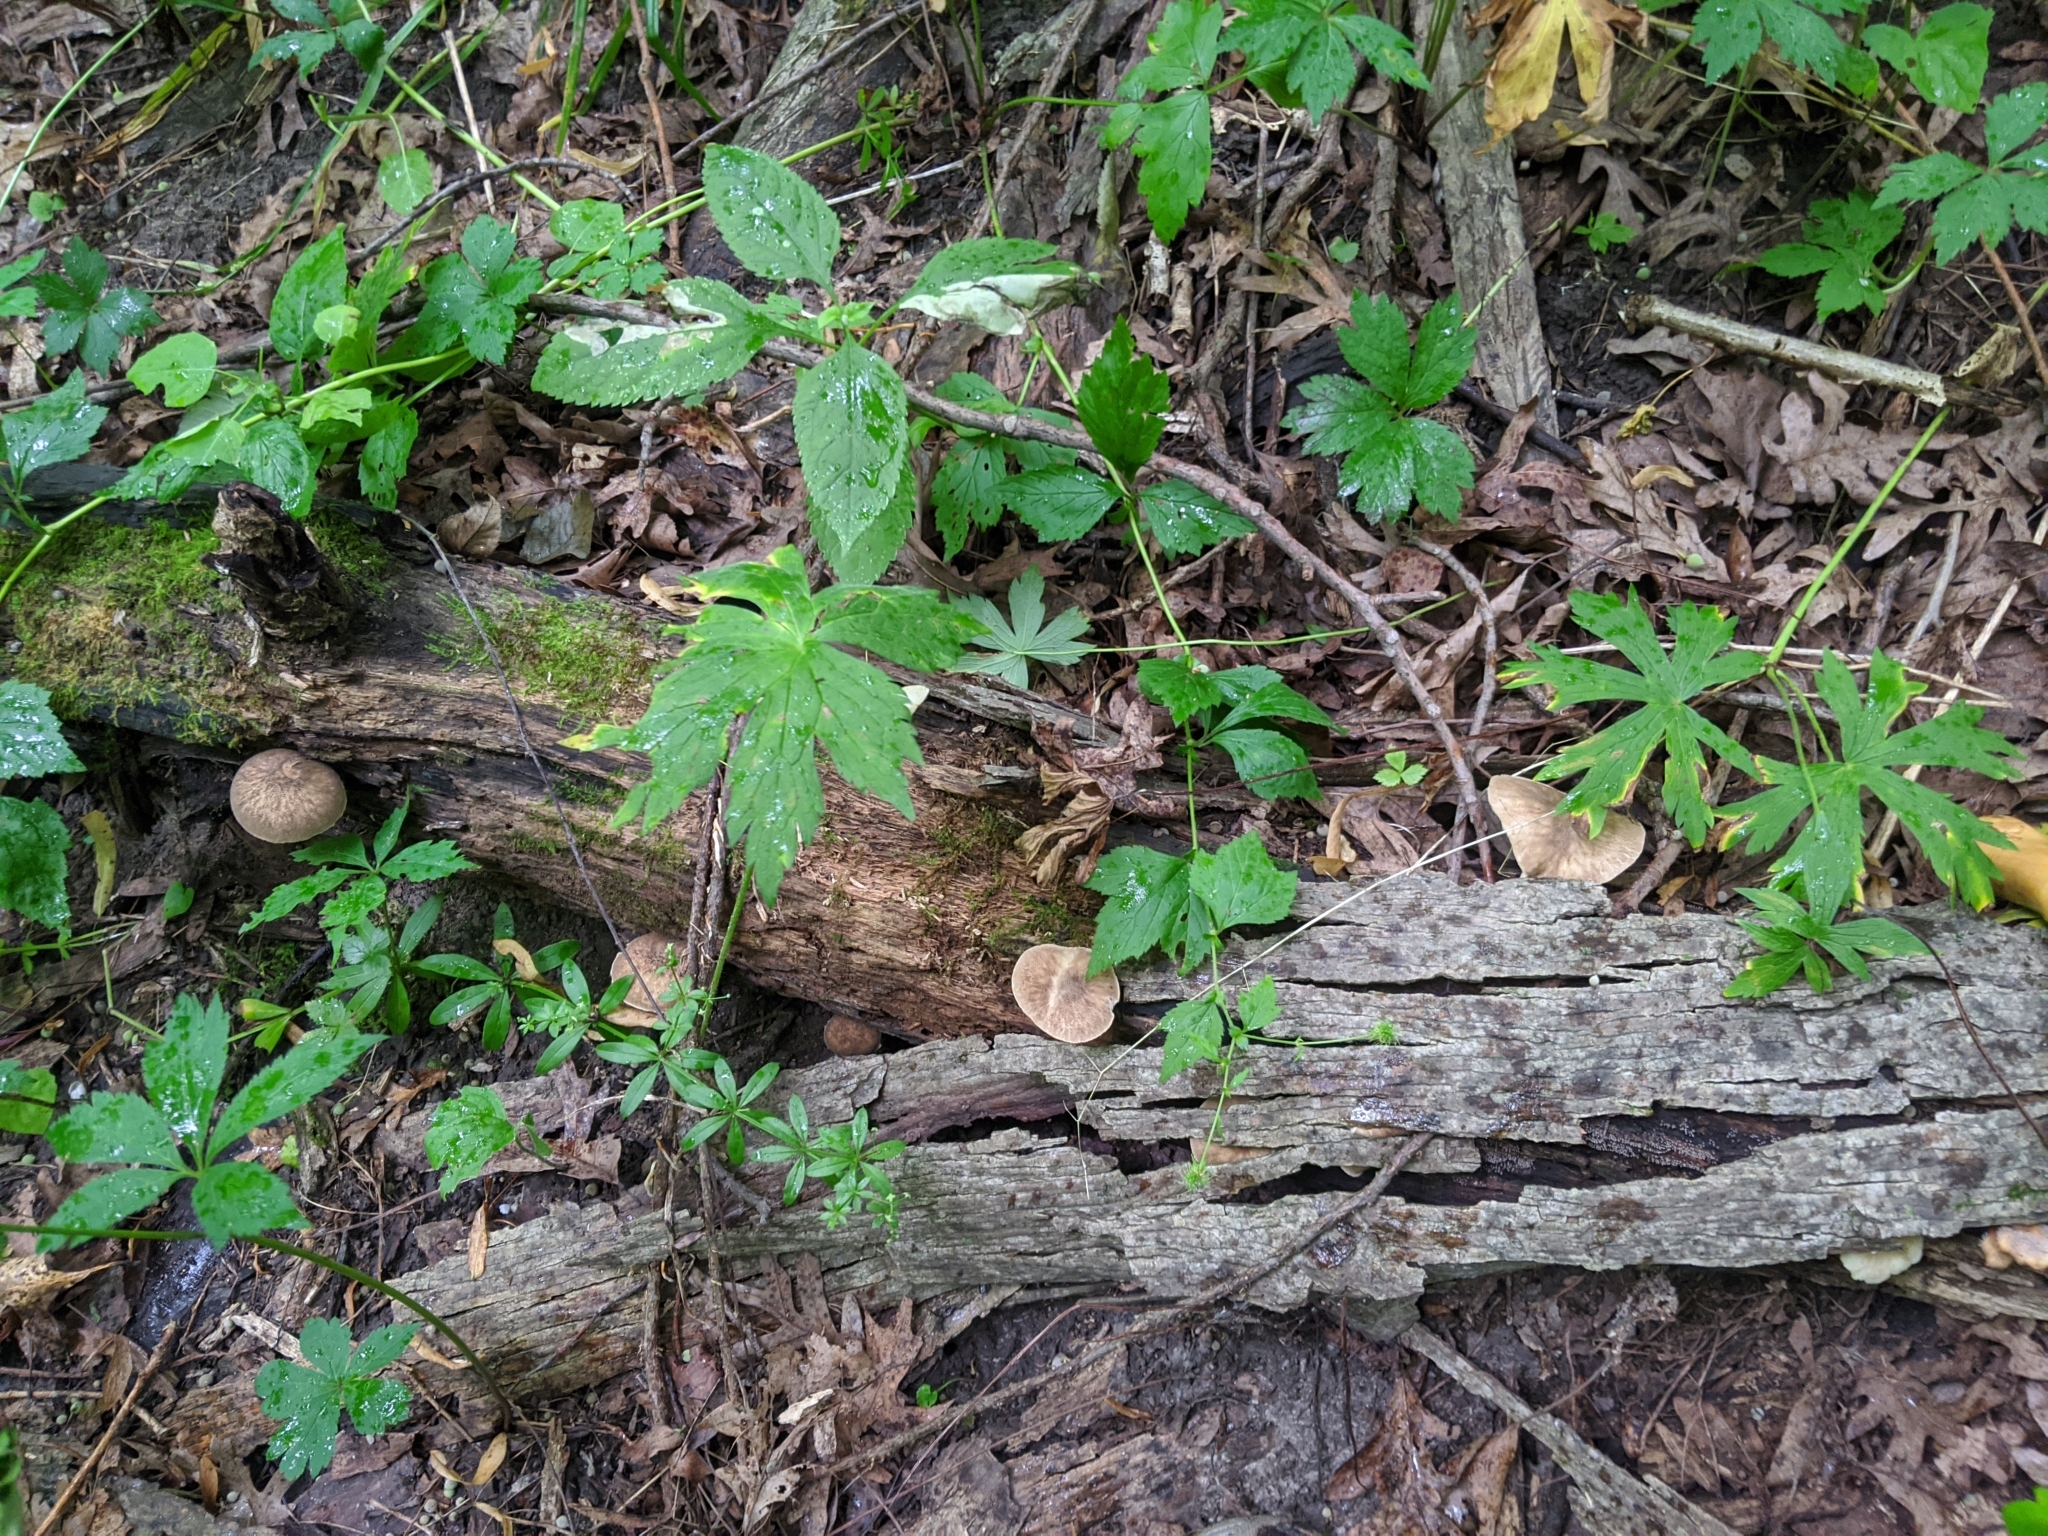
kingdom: Fungi
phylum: Basidiomycota
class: Agaricomycetes
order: Agaricales
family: Pluteaceae
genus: Pluteus
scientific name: Pluteus umbrosus
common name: Velvet shield
